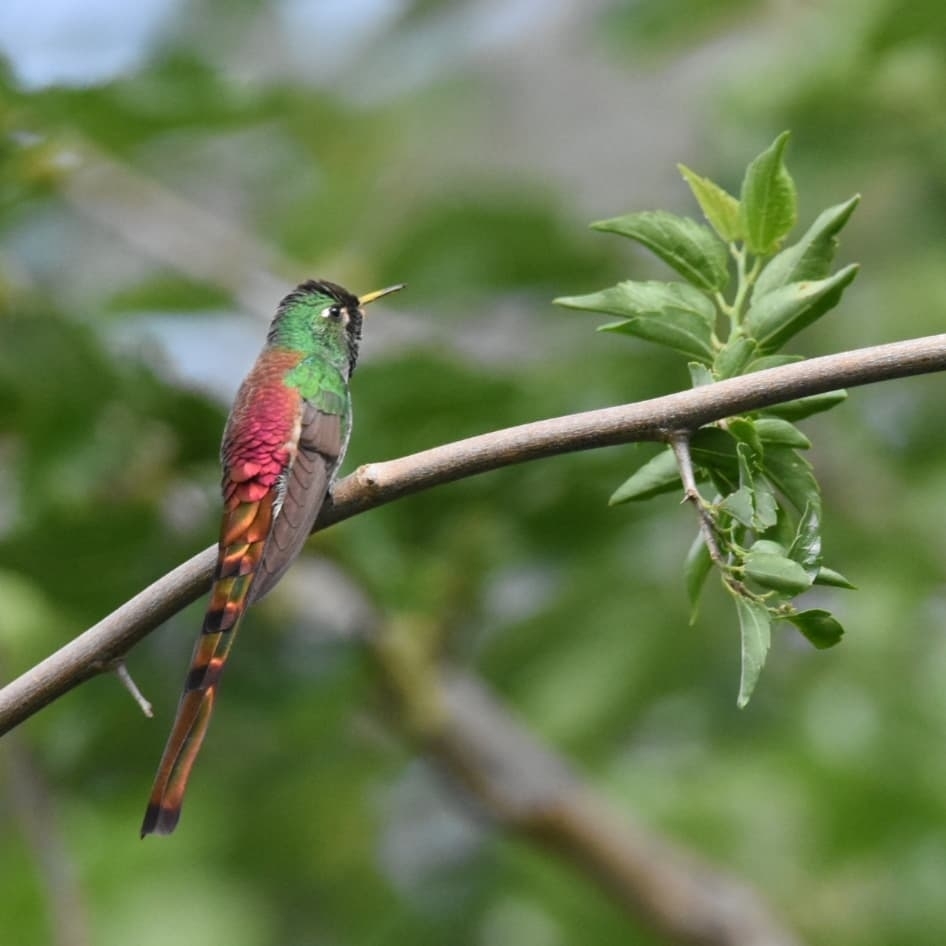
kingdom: Animalia
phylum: Chordata
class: Aves
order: Apodiformes
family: Trochilidae
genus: Sappho
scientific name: Sappho sparganurus
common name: Red-tailed comet
